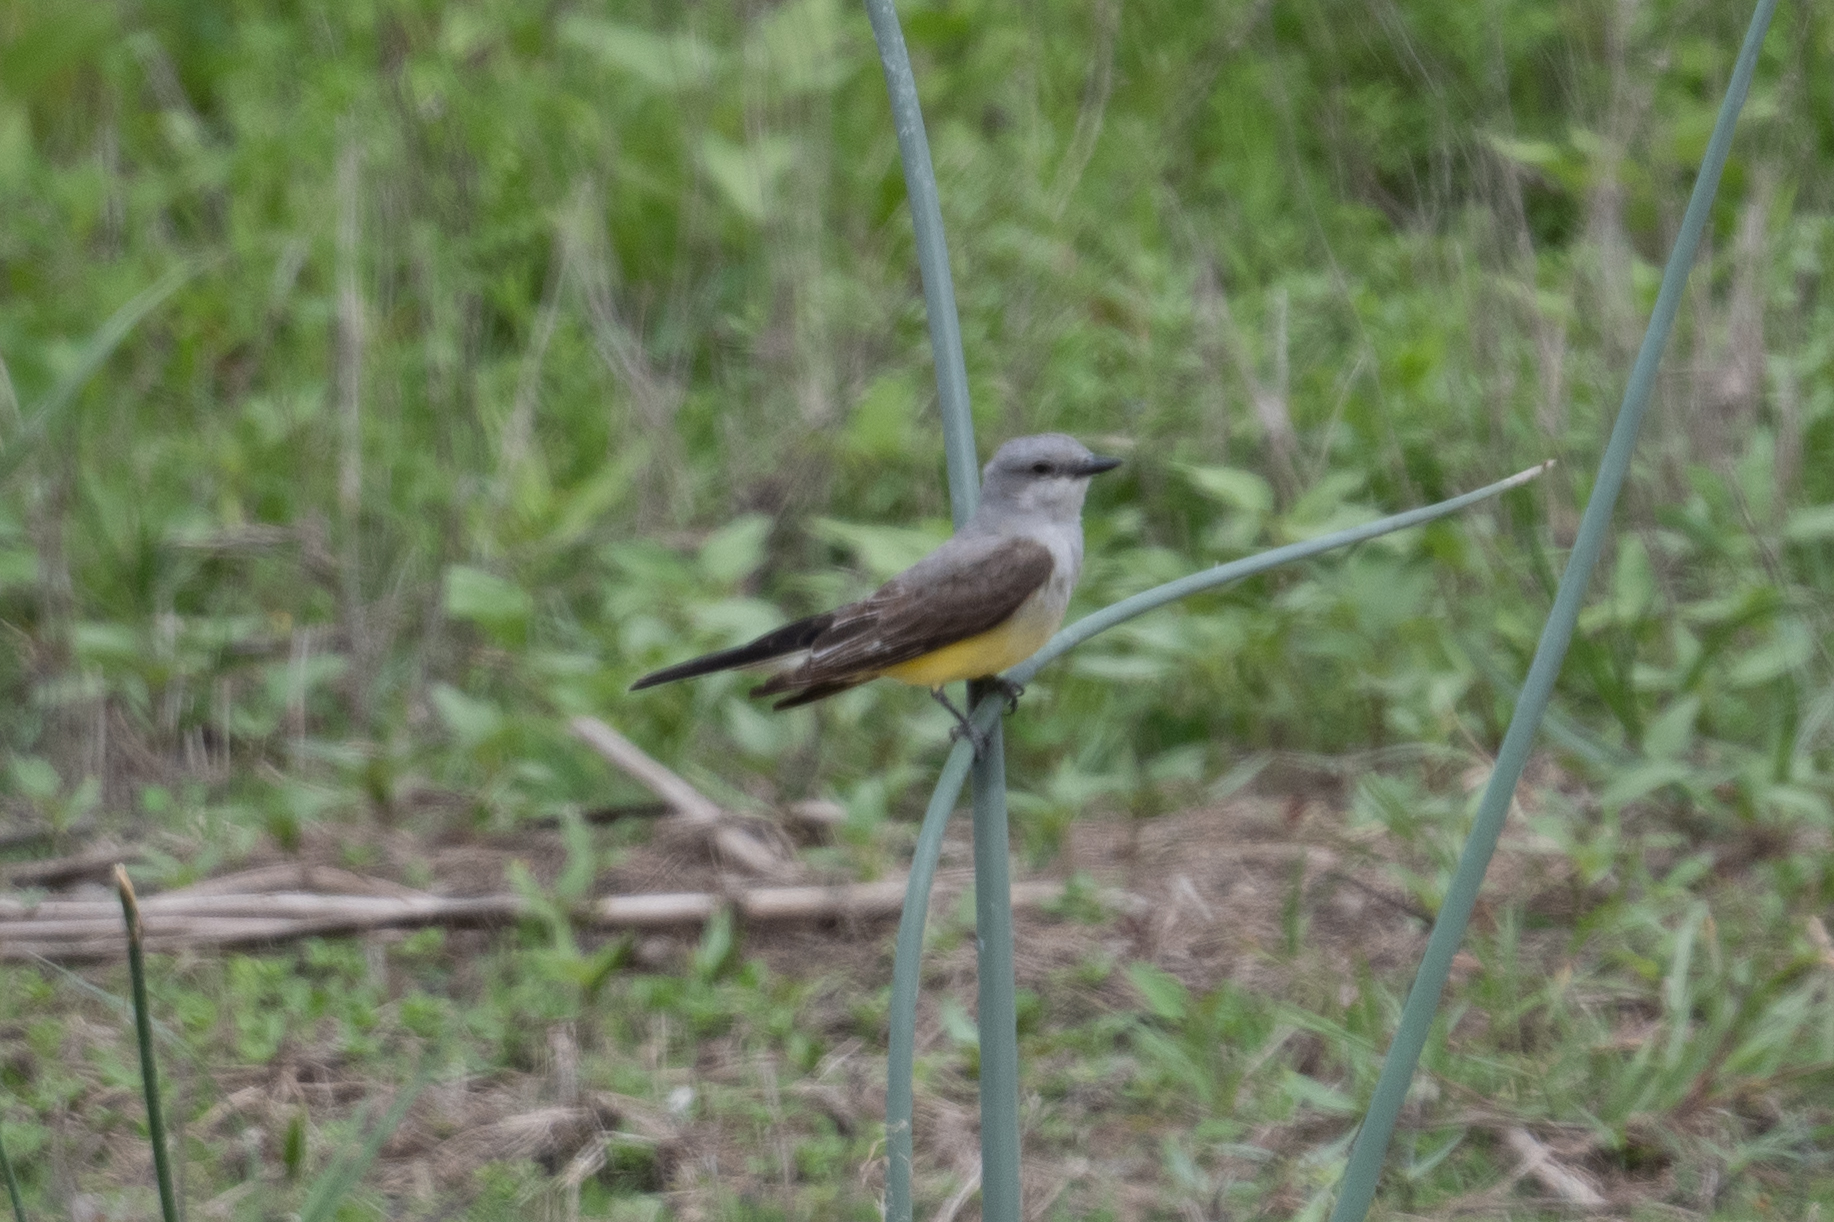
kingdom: Animalia
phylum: Chordata
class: Aves
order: Passeriformes
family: Tyrannidae
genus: Tyrannus
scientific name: Tyrannus verticalis
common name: Western kingbird
